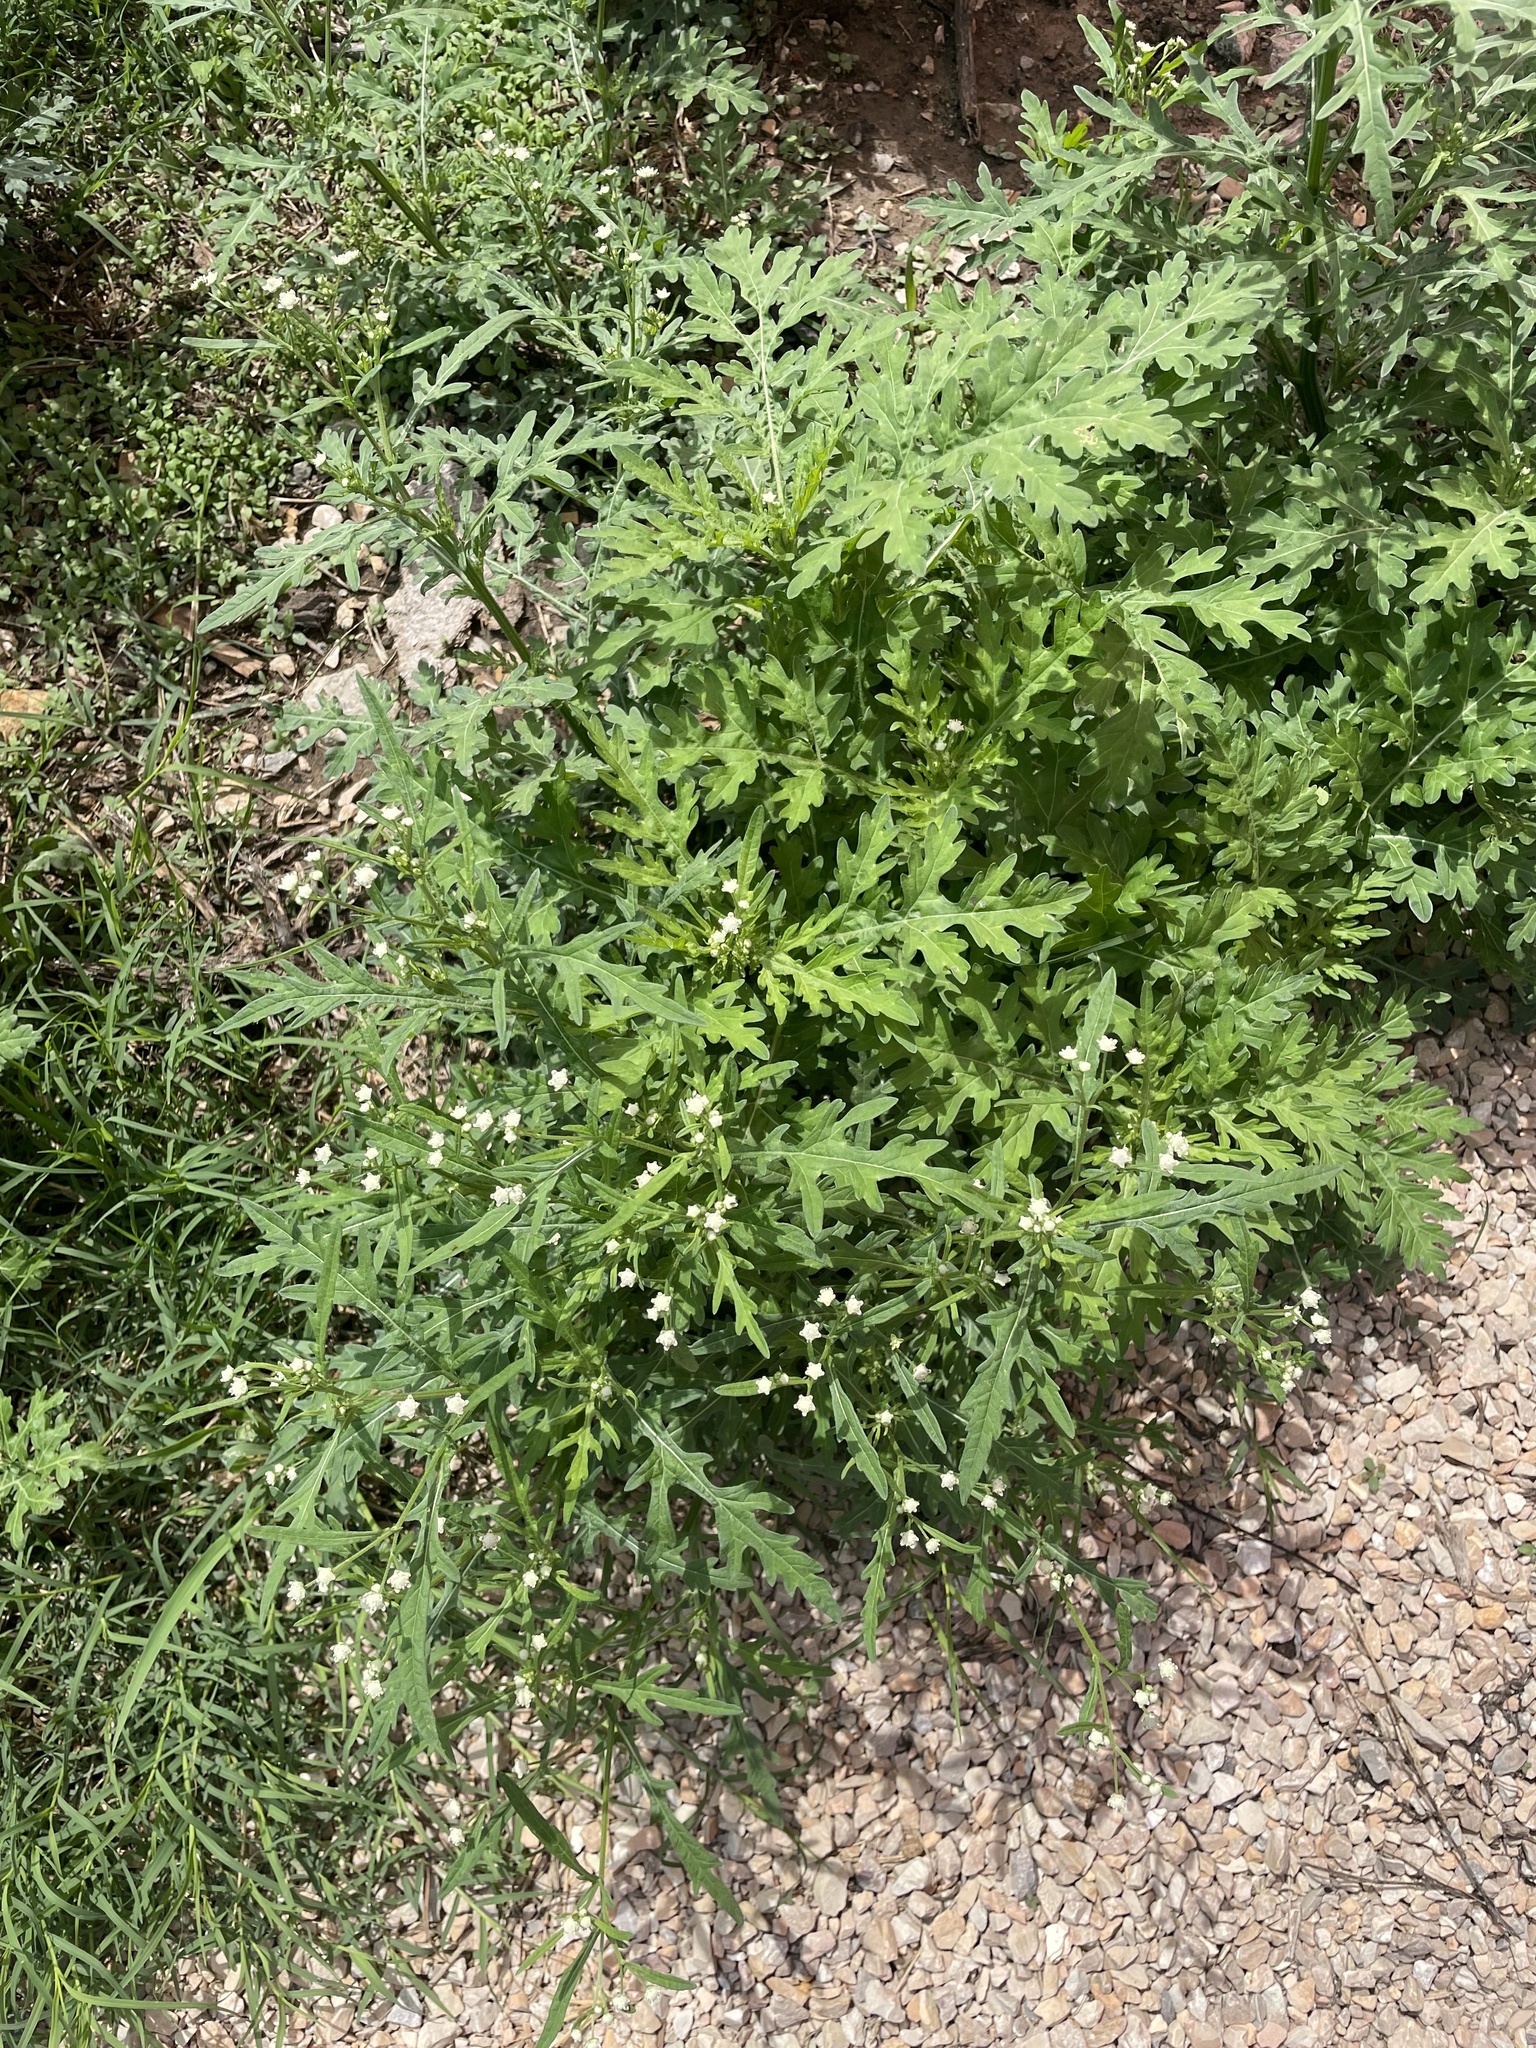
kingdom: Plantae
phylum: Tracheophyta
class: Magnoliopsida
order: Asterales
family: Asteraceae
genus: Parthenium
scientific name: Parthenium hysterophorus
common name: Santa maria feverfew
